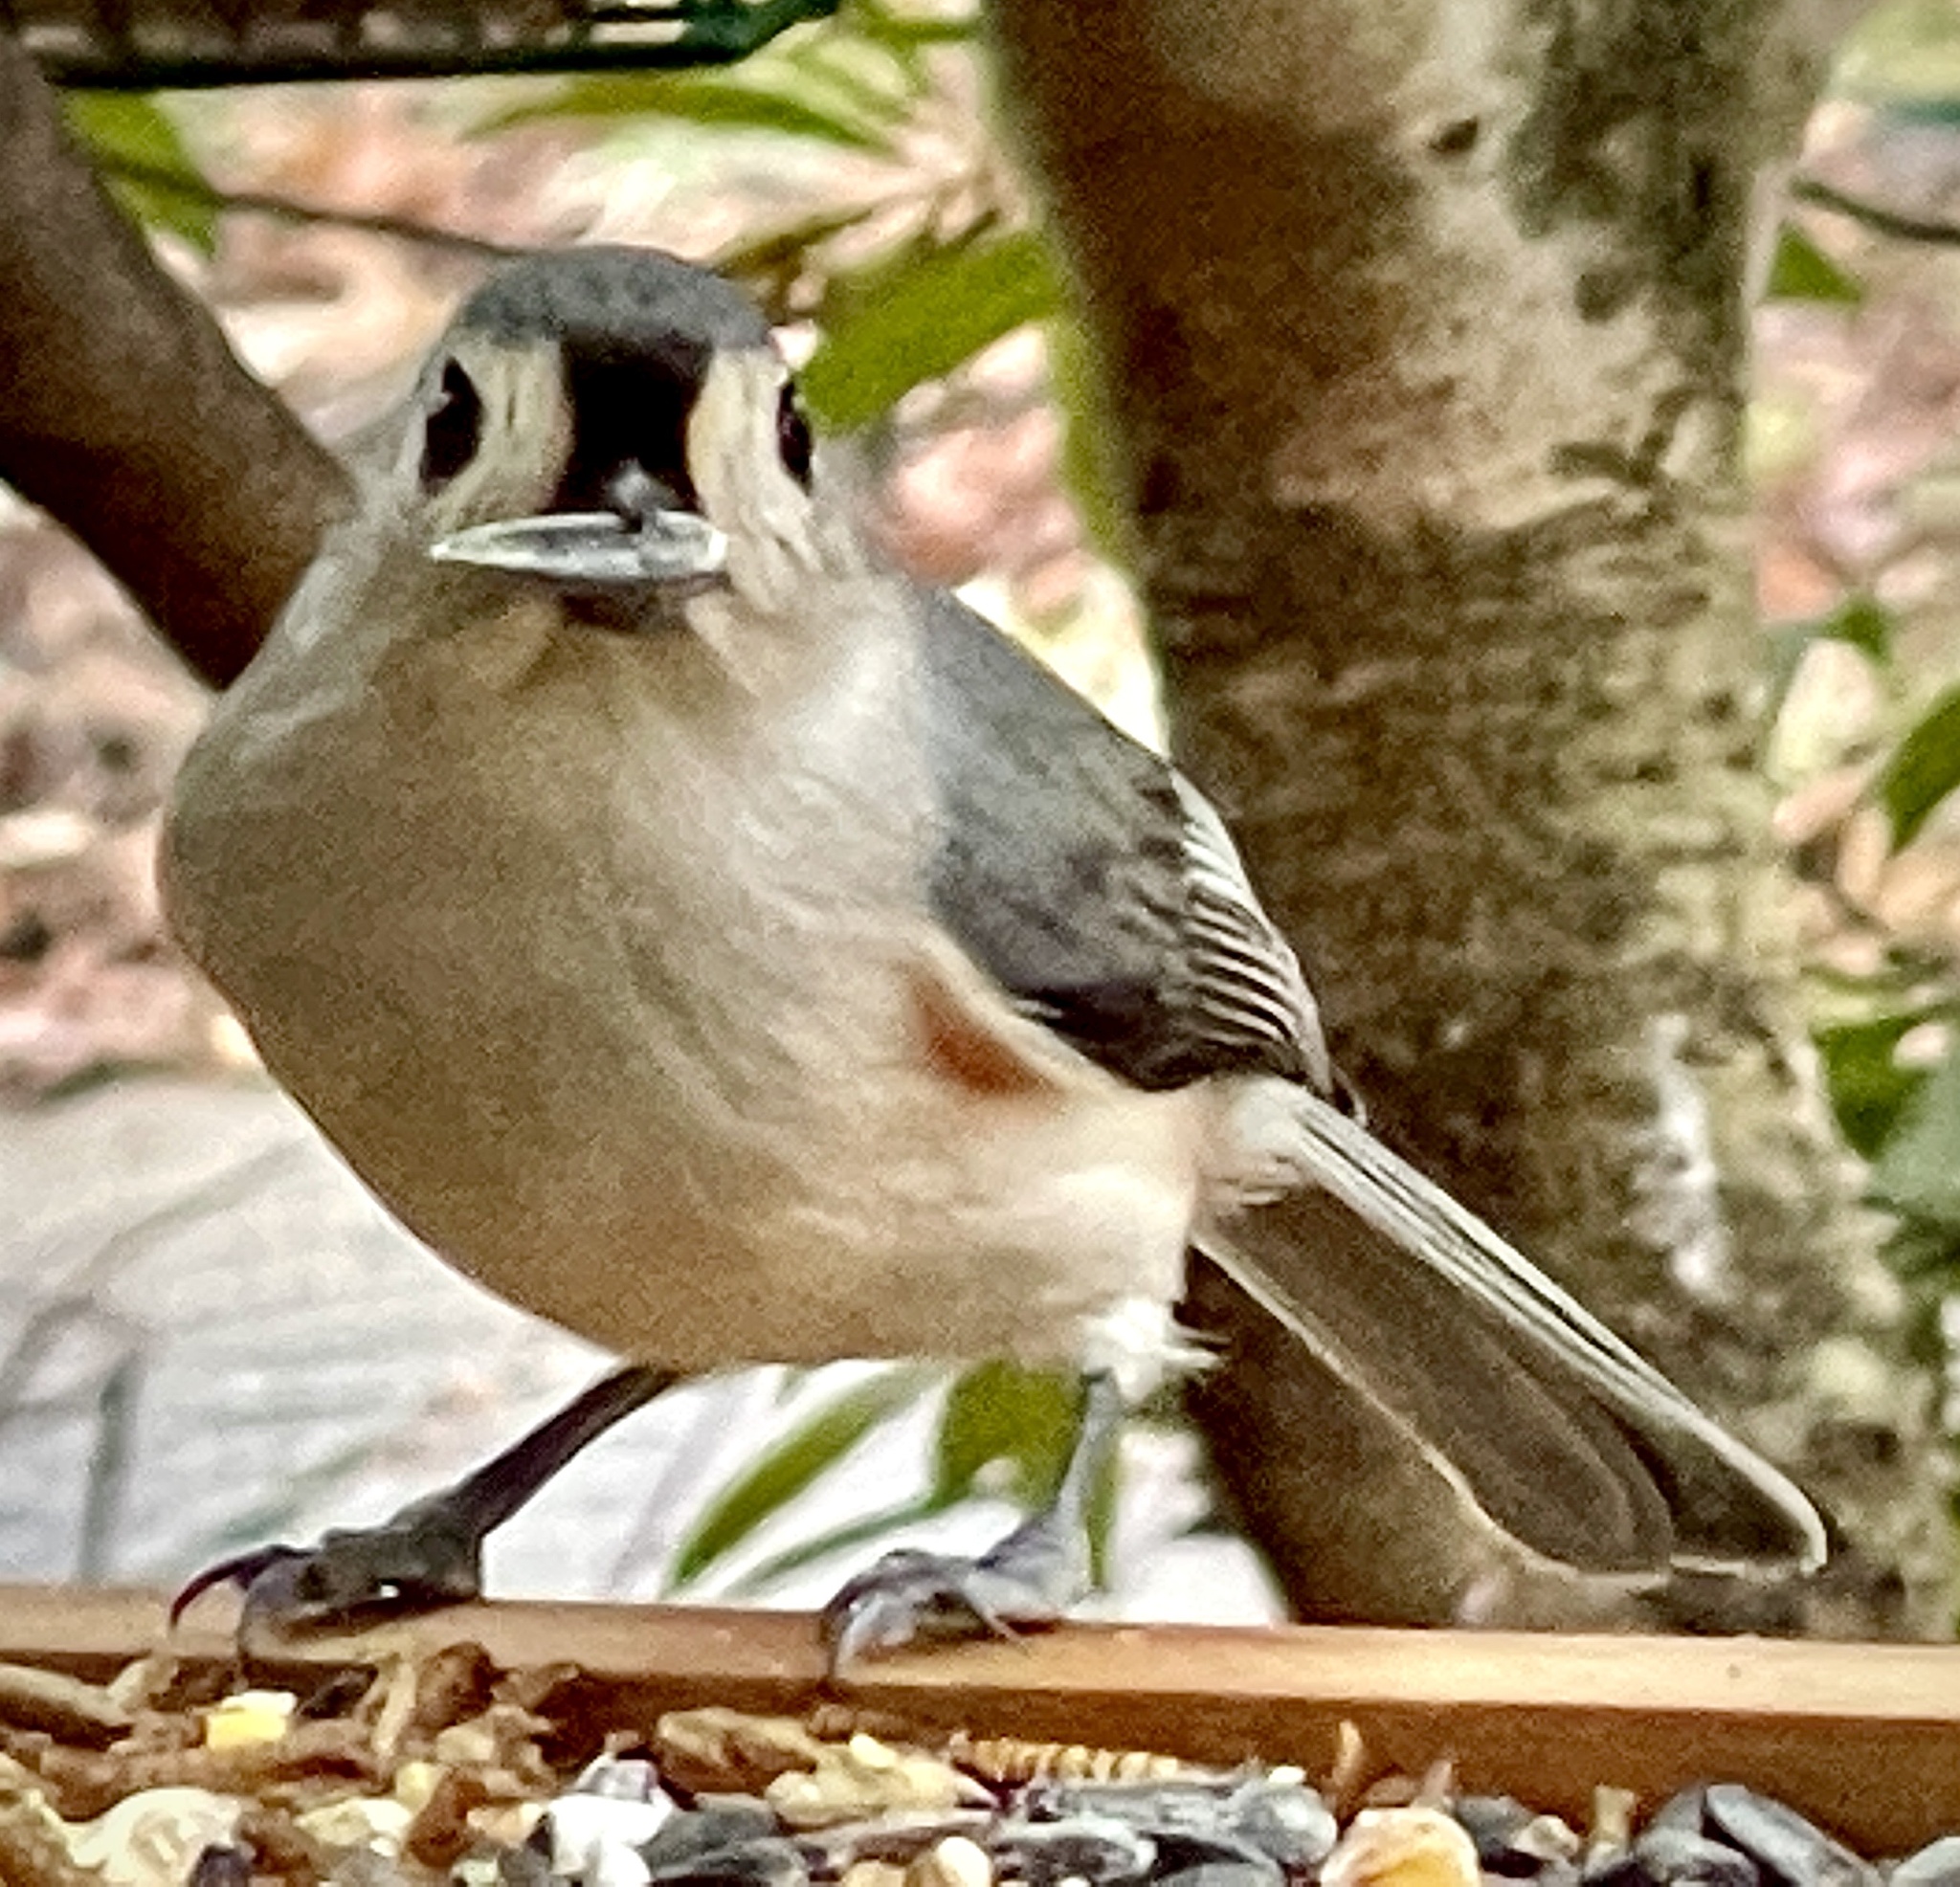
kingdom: Animalia
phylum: Chordata
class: Aves
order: Passeriformes
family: Paridae
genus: Baeolophus
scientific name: Baeolophus bicolor
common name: Tufted titmouse
